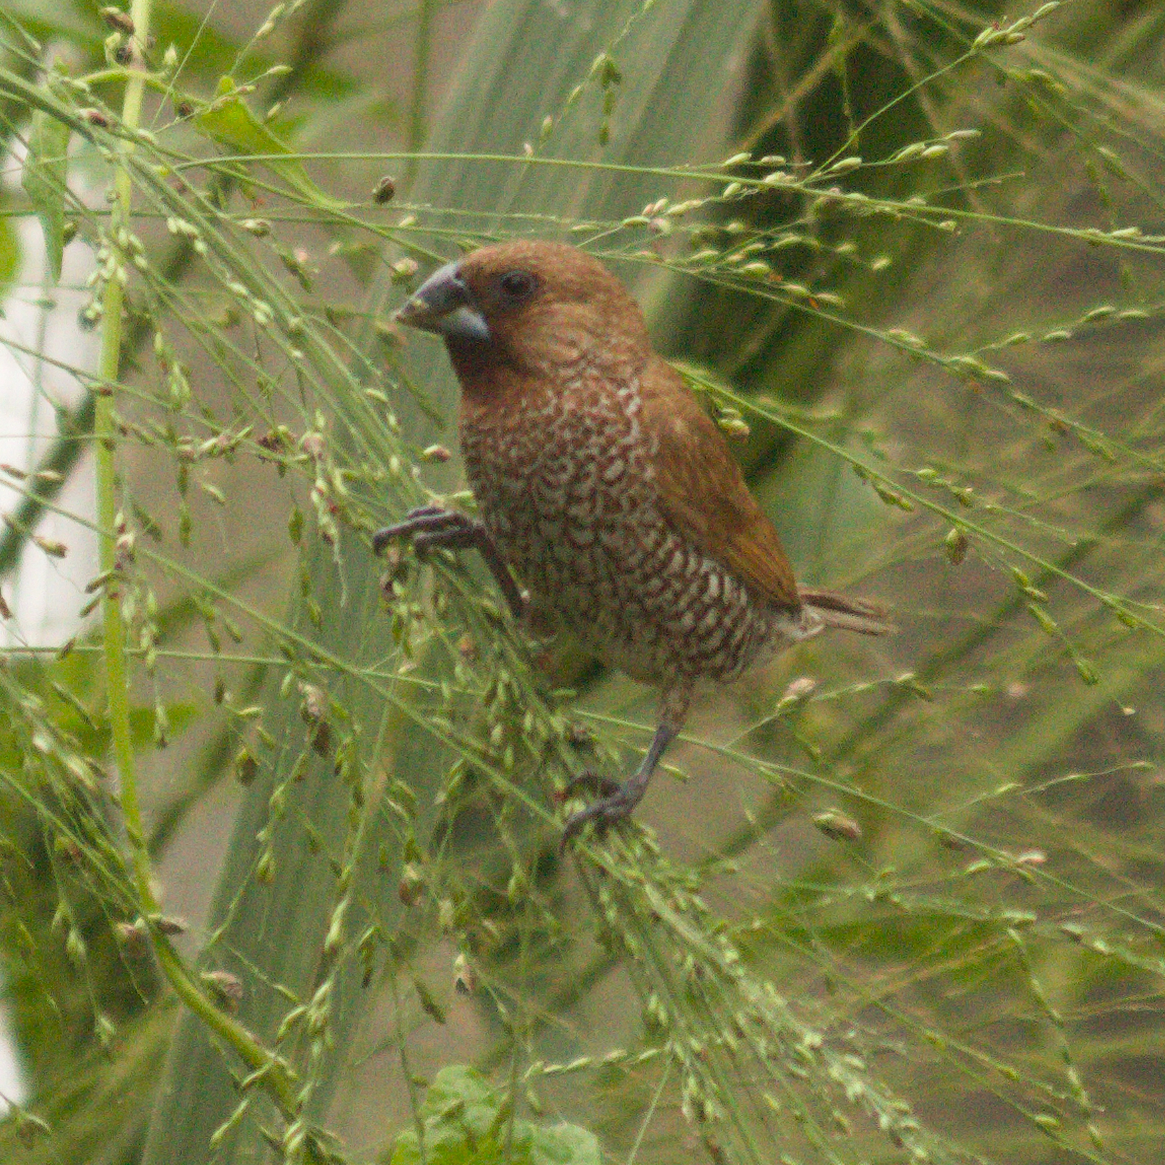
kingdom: Animalia
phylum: Chordata
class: Aves
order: Passeriformes
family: Estrildidae
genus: Lonchura
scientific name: Lonchura punctulata
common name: Scaly-breasted munia
